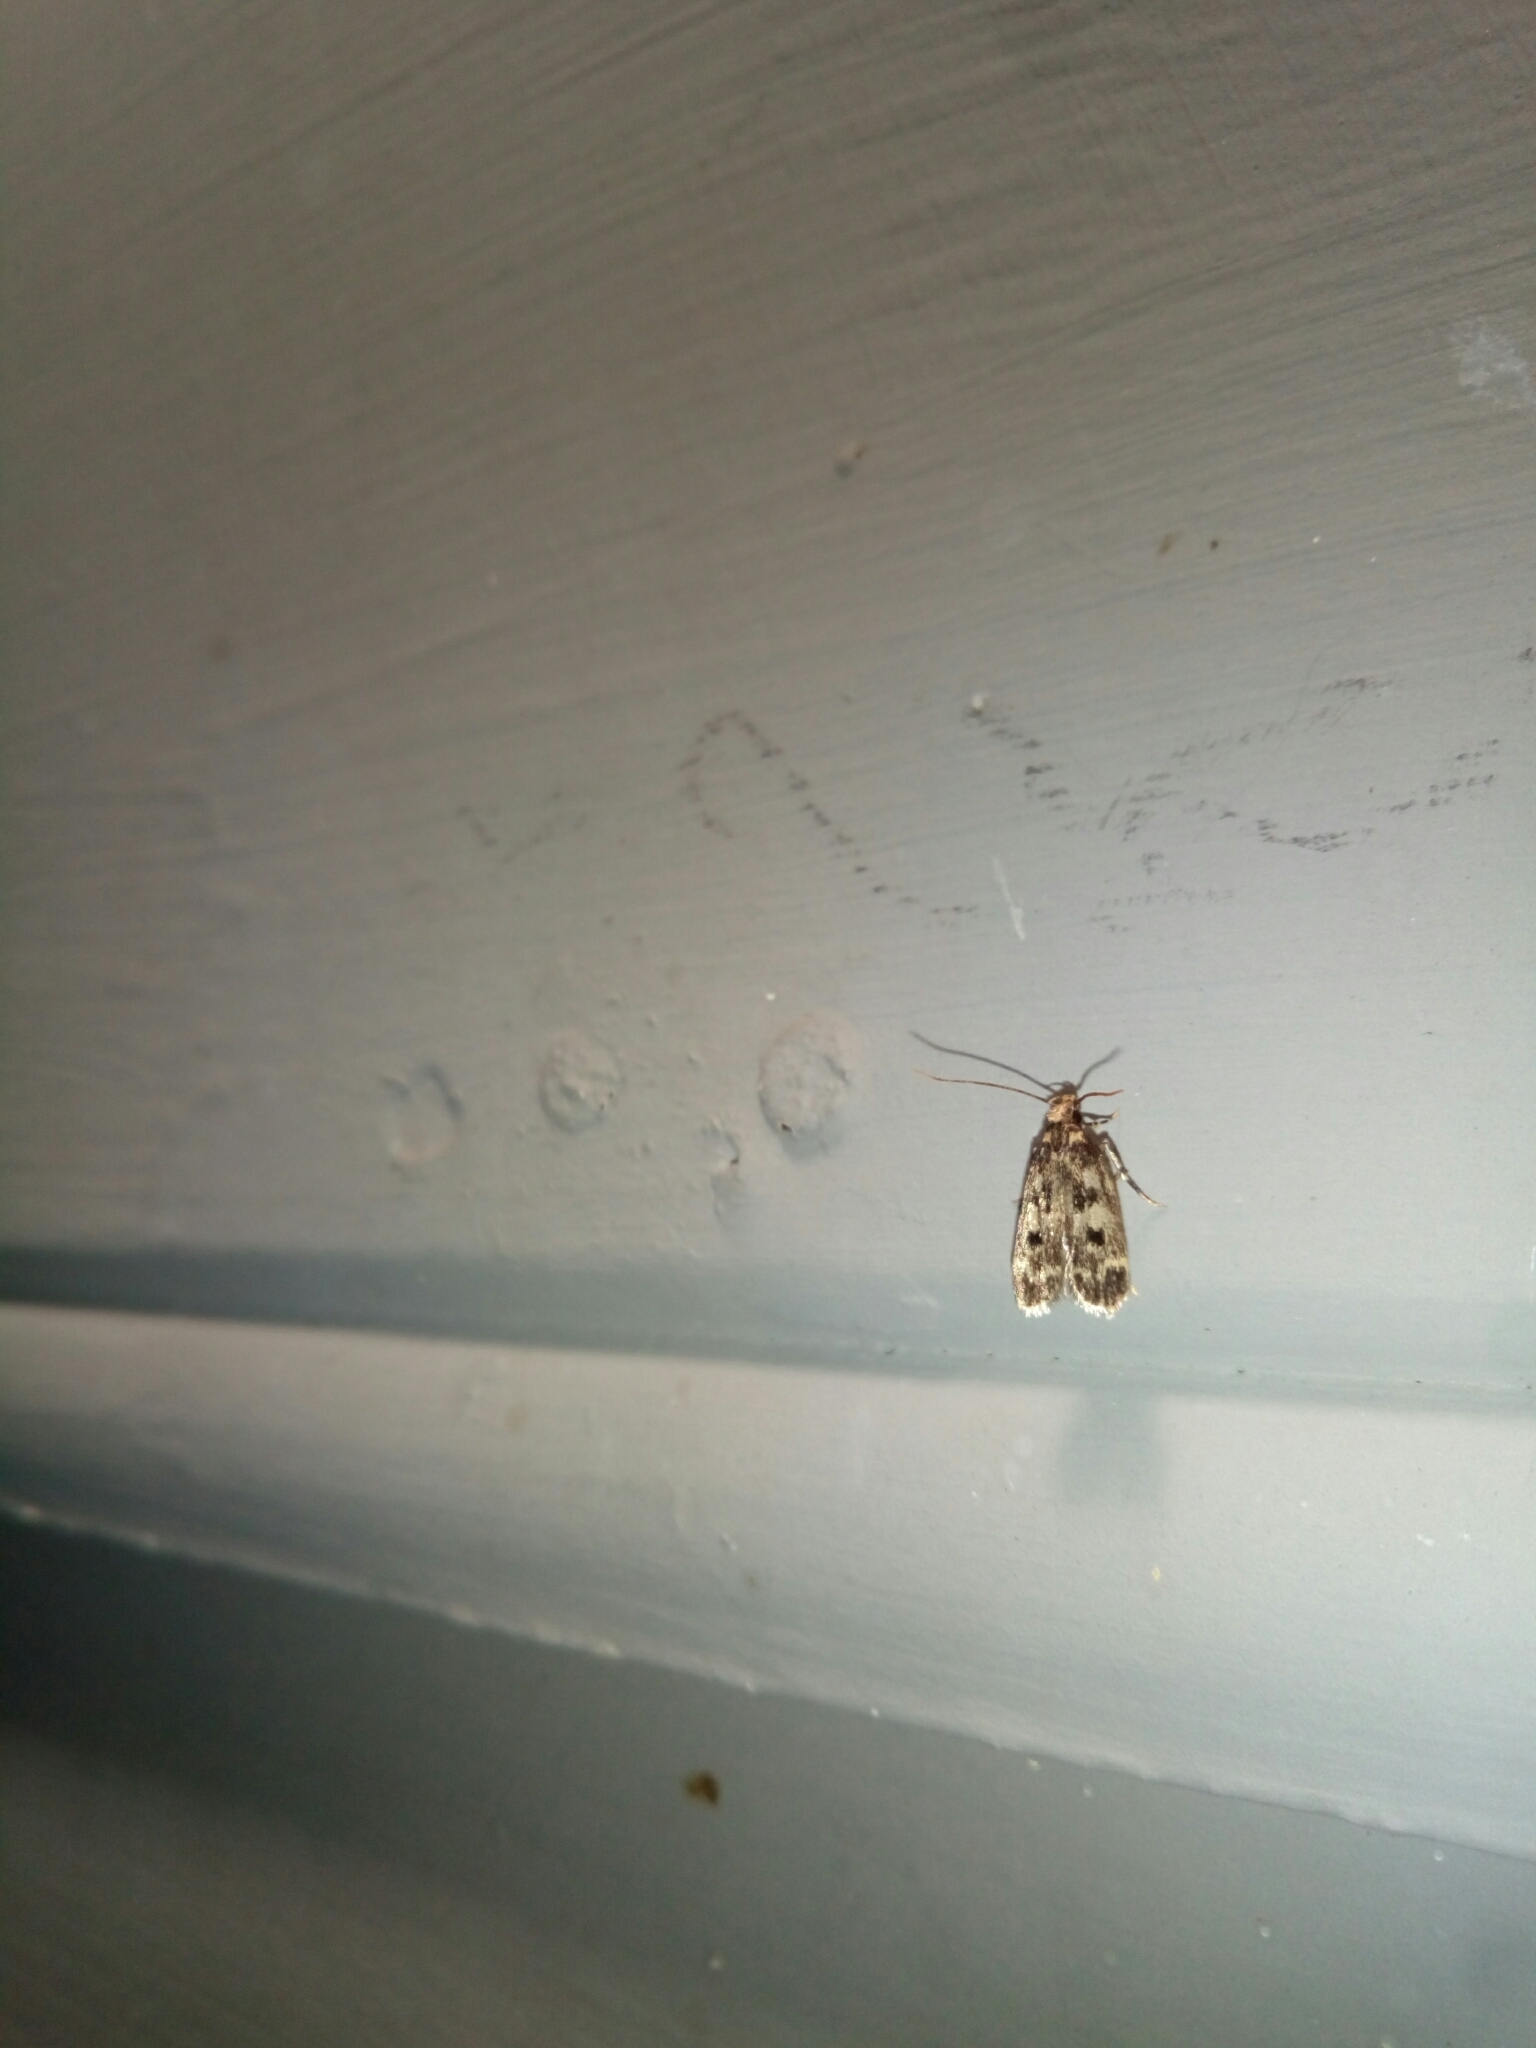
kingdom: Animalia
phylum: Arthropoda
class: Insecta
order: Lepidoptera
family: Lecithoceridae
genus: Martyringa
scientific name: Martyringa latipennis
